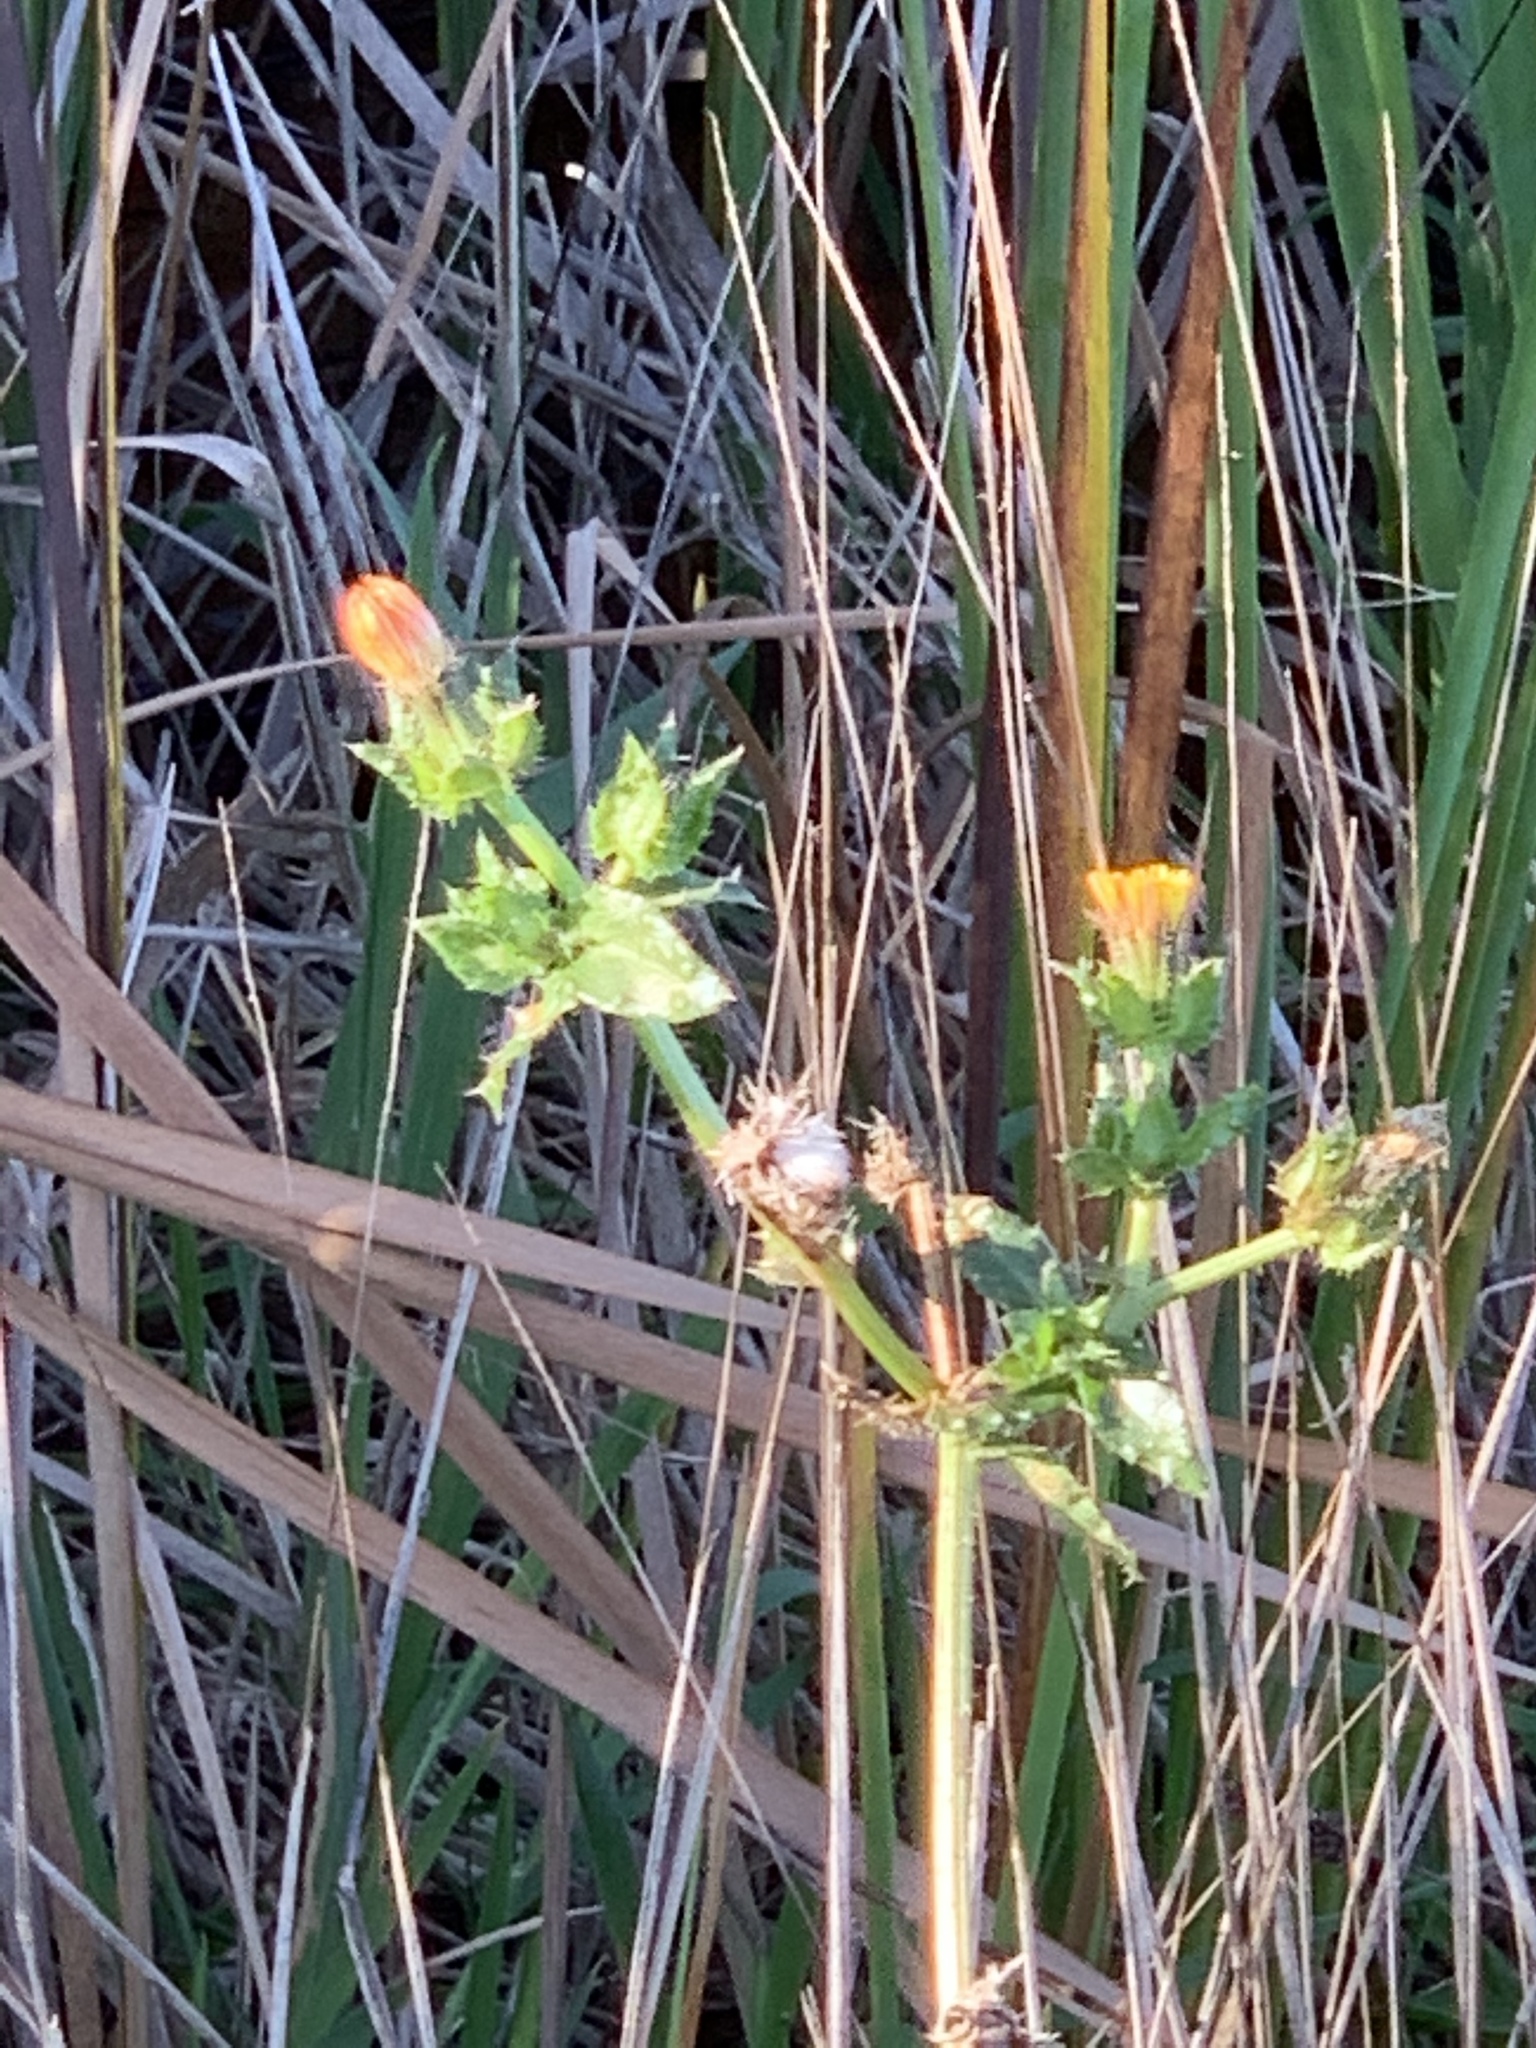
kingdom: Plantae
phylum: Tracheophyta
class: Magnoliopsida
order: Asterales
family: Asteraceae
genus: Helminthotheca
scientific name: Helminthotheca echioides
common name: Ox-tongue
